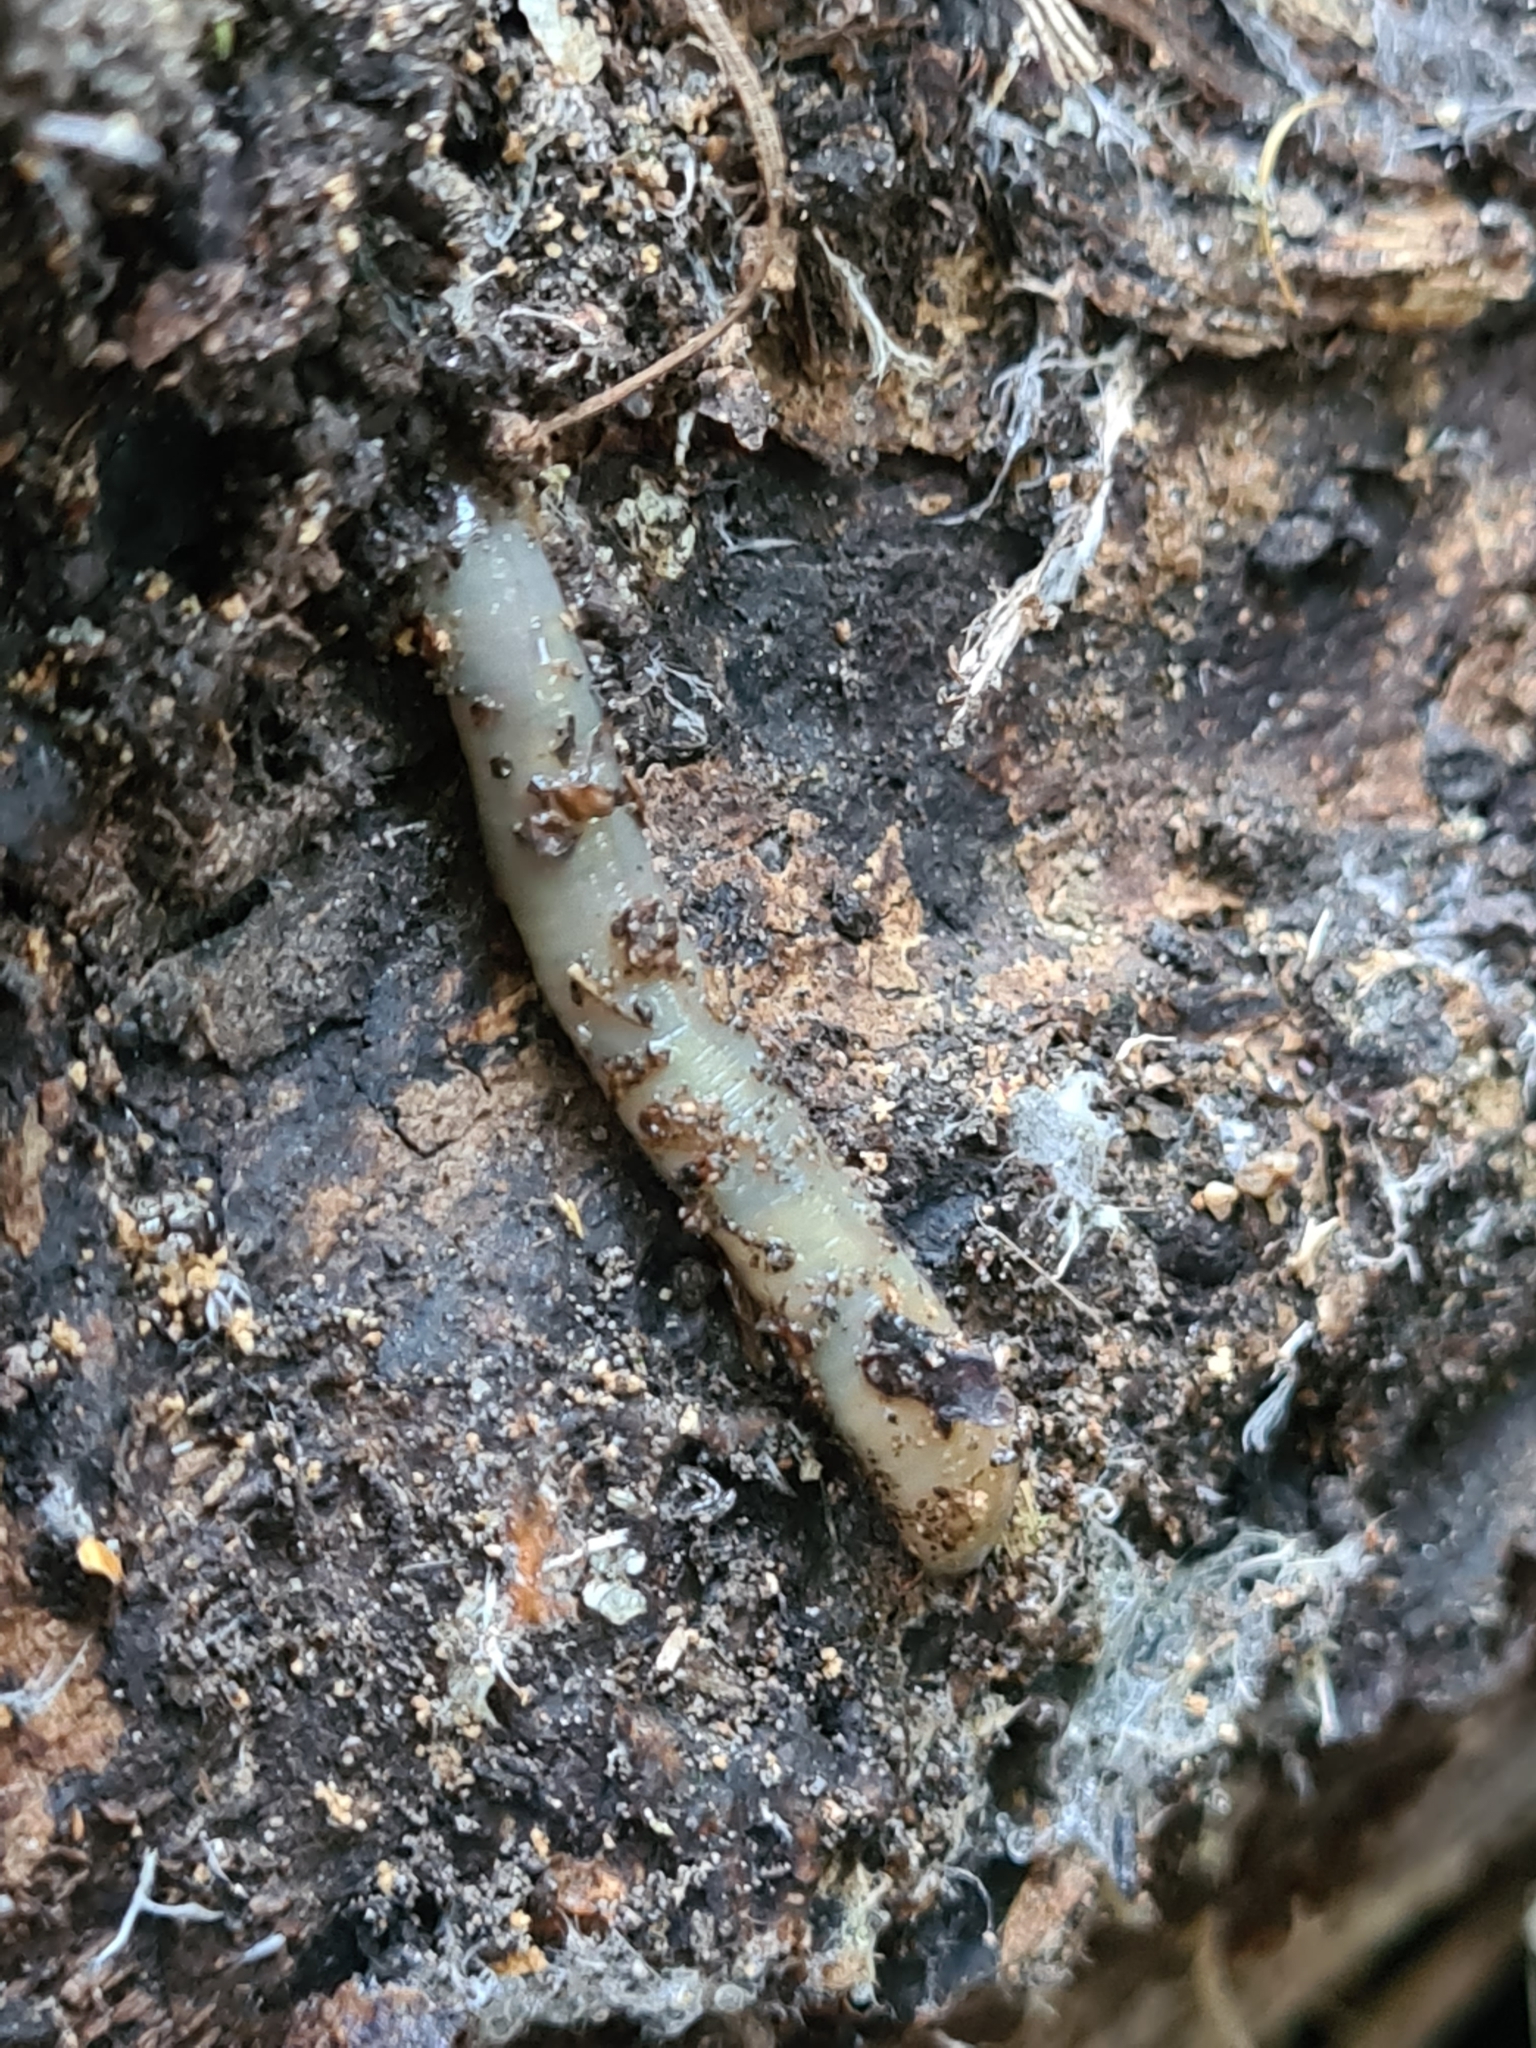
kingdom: Animalia
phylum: Annelida
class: Clitellata
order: Crassiclitellata
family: Lumbricidae
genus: Aporrectodea
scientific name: Aporrectodea smaragdina
